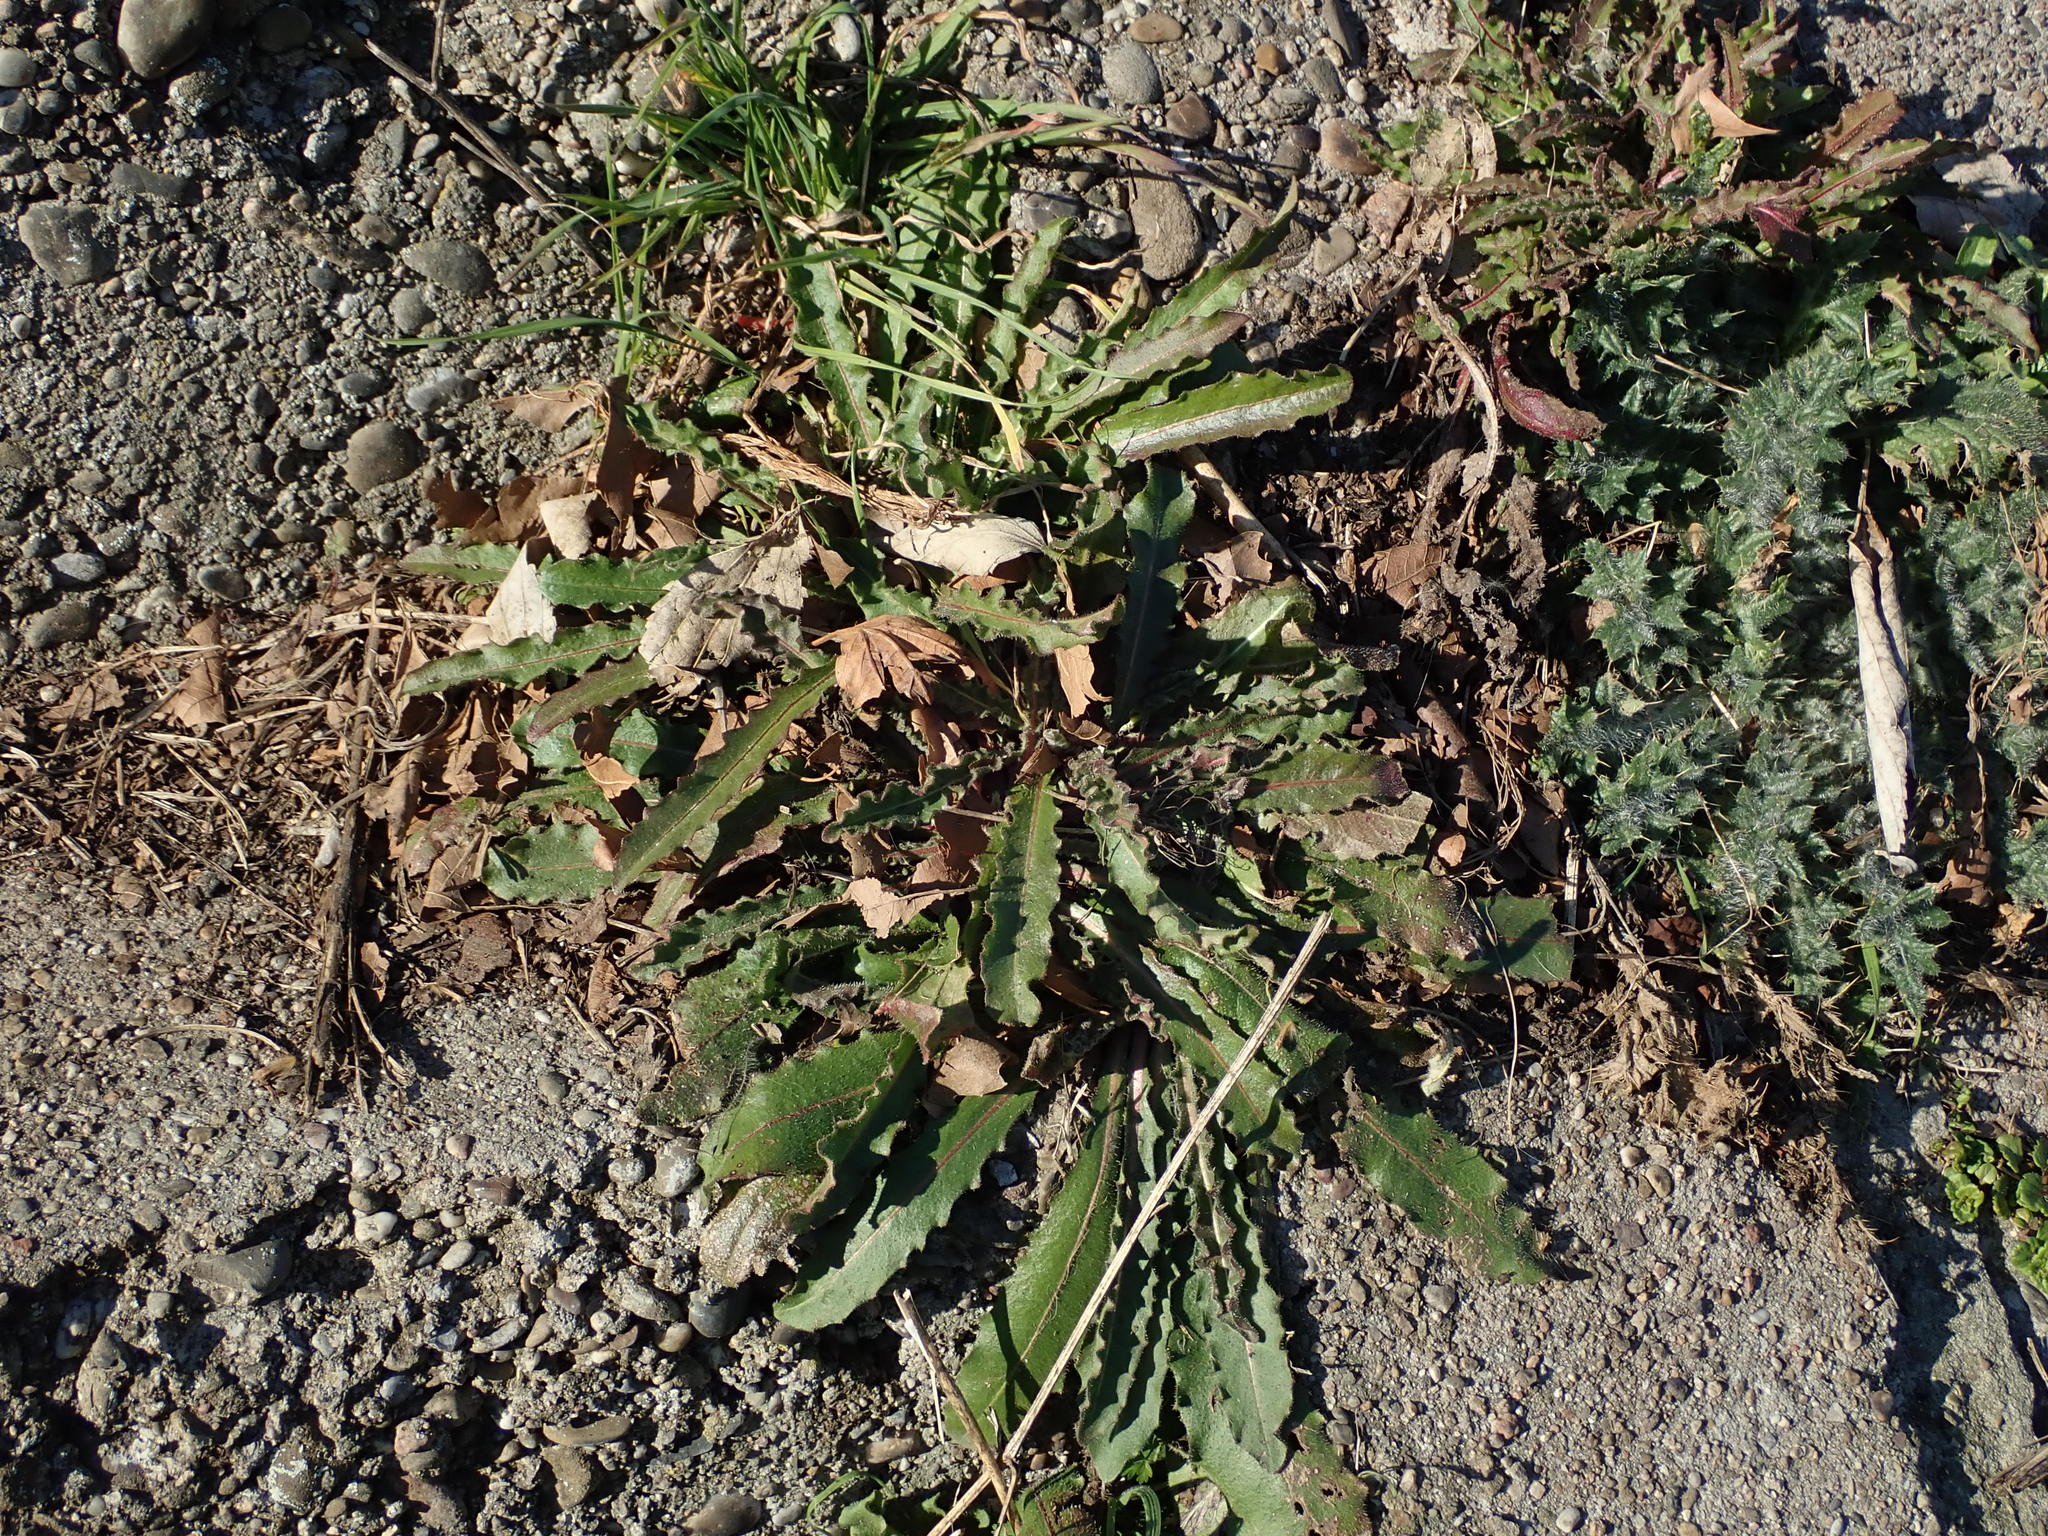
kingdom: Plantae
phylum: Tracheophyta
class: Magnoliopsida
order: Asterales
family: Asteraceae
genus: Picris
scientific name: Picris hieracioides
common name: Hawkweed oxtongue
